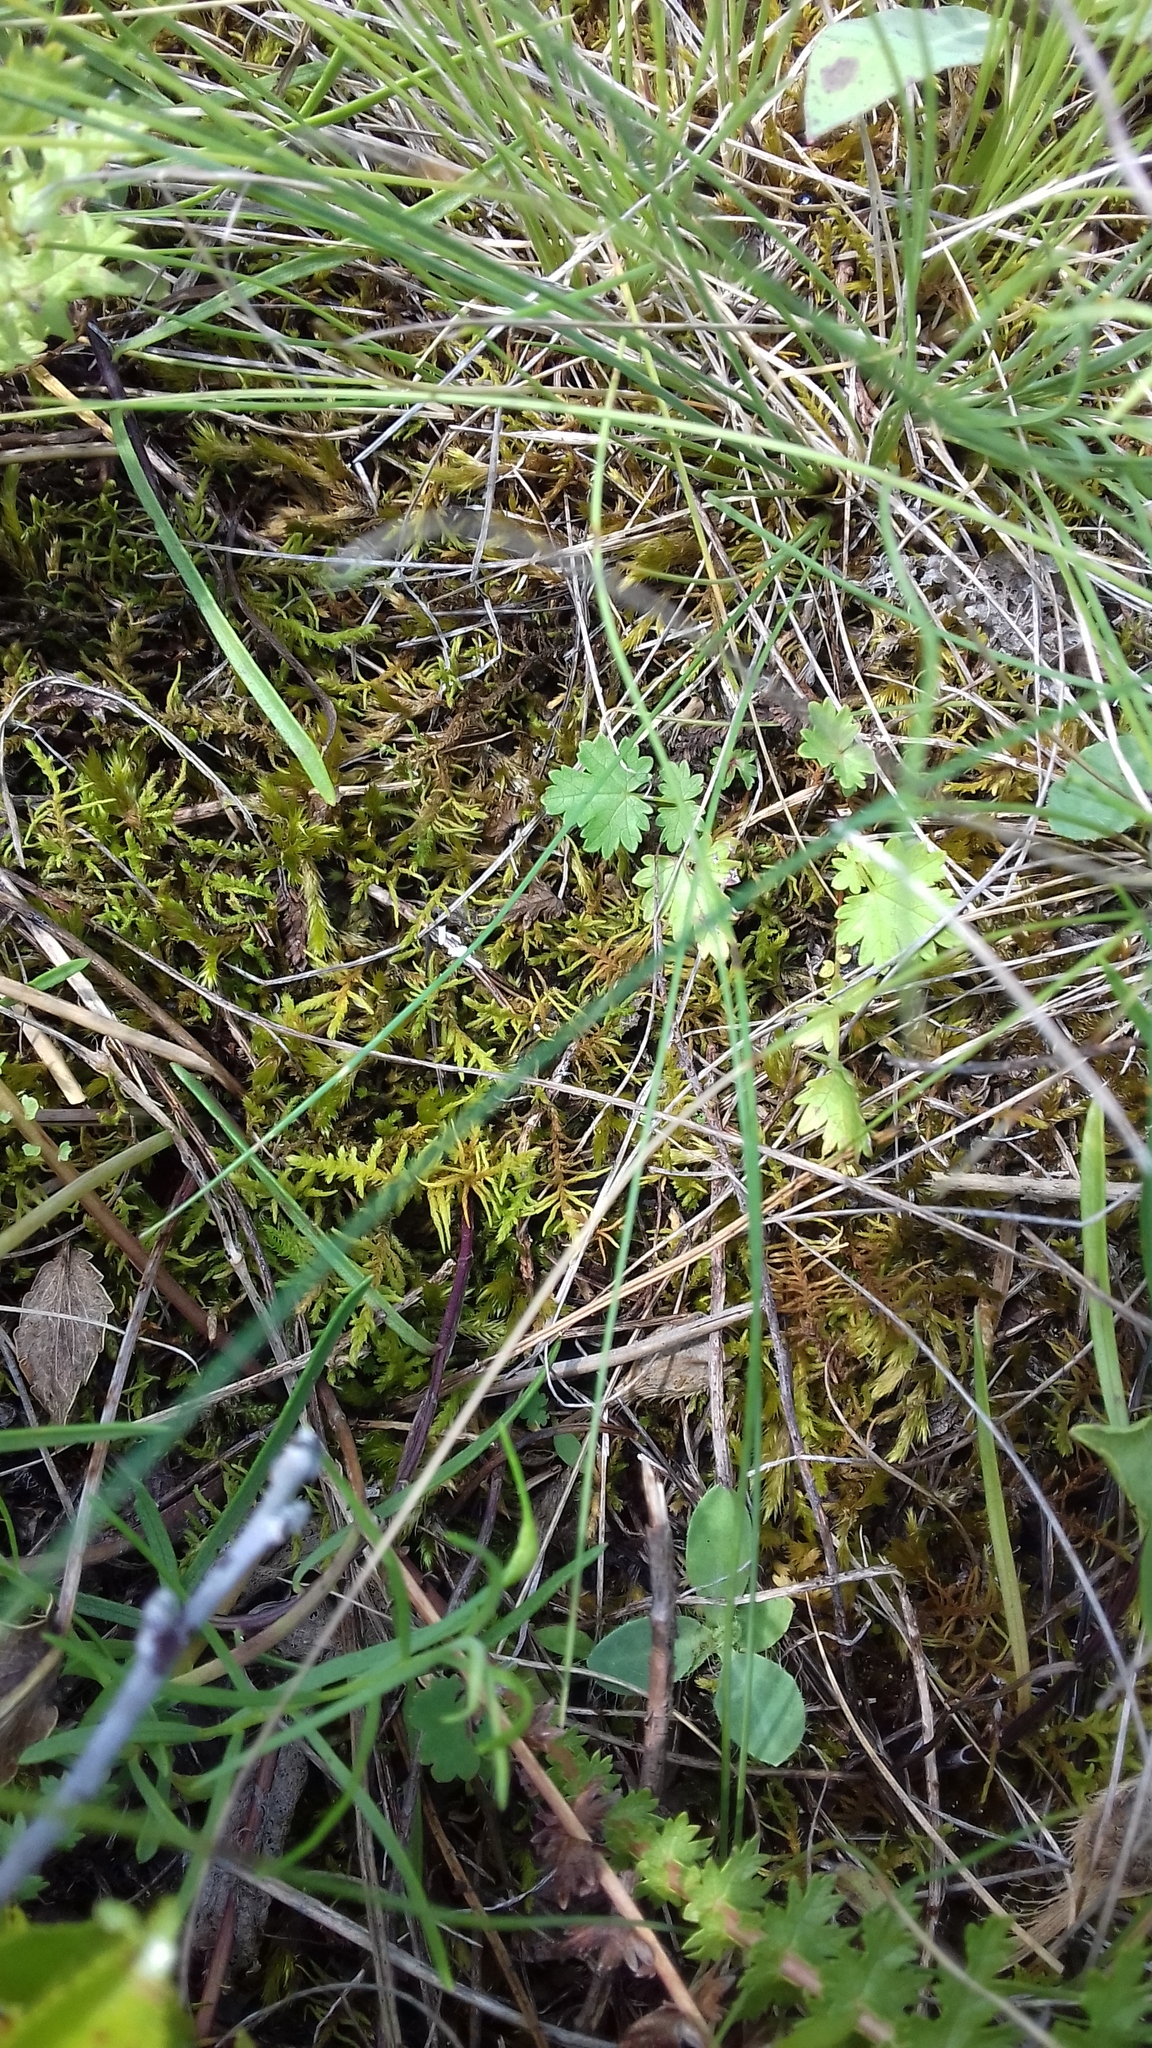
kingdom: Plantae
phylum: Bryophyta
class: Bryopsida
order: Hypnales
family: Thuidiaceae
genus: Abietinella
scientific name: Abietinella abietina
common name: Wiry fern moss
